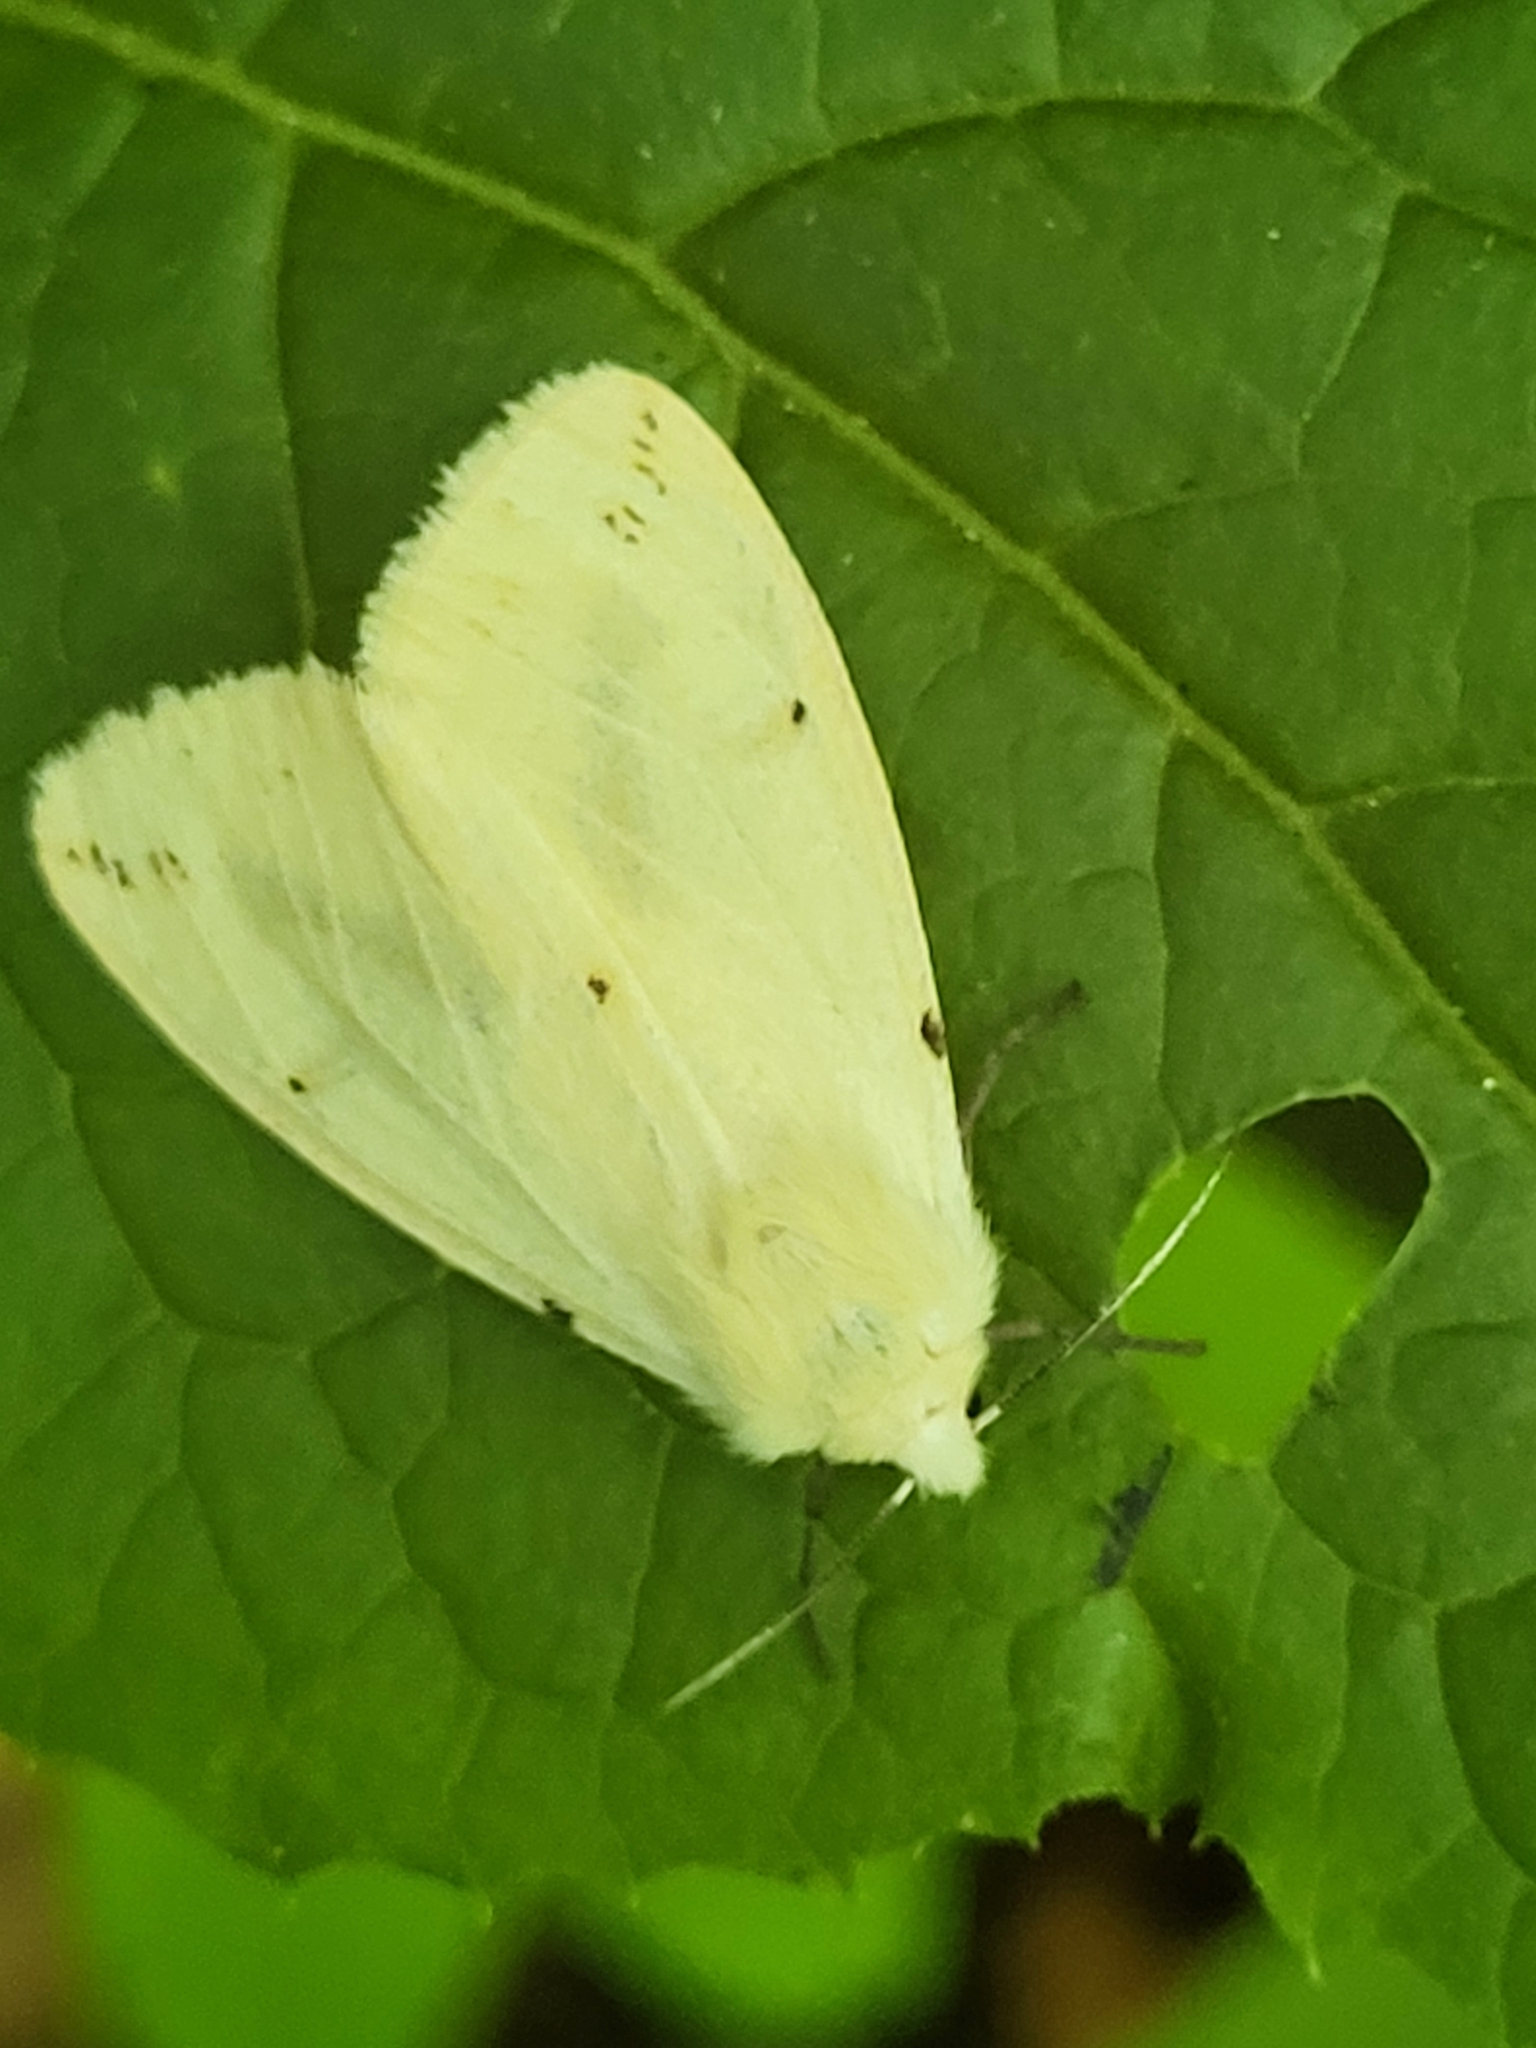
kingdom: Animalia
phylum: Arthropoda
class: Insecta
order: Lepidoptera
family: Erebidae
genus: Spilarctia
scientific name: Spilarctia lutea
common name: Buff ermine
